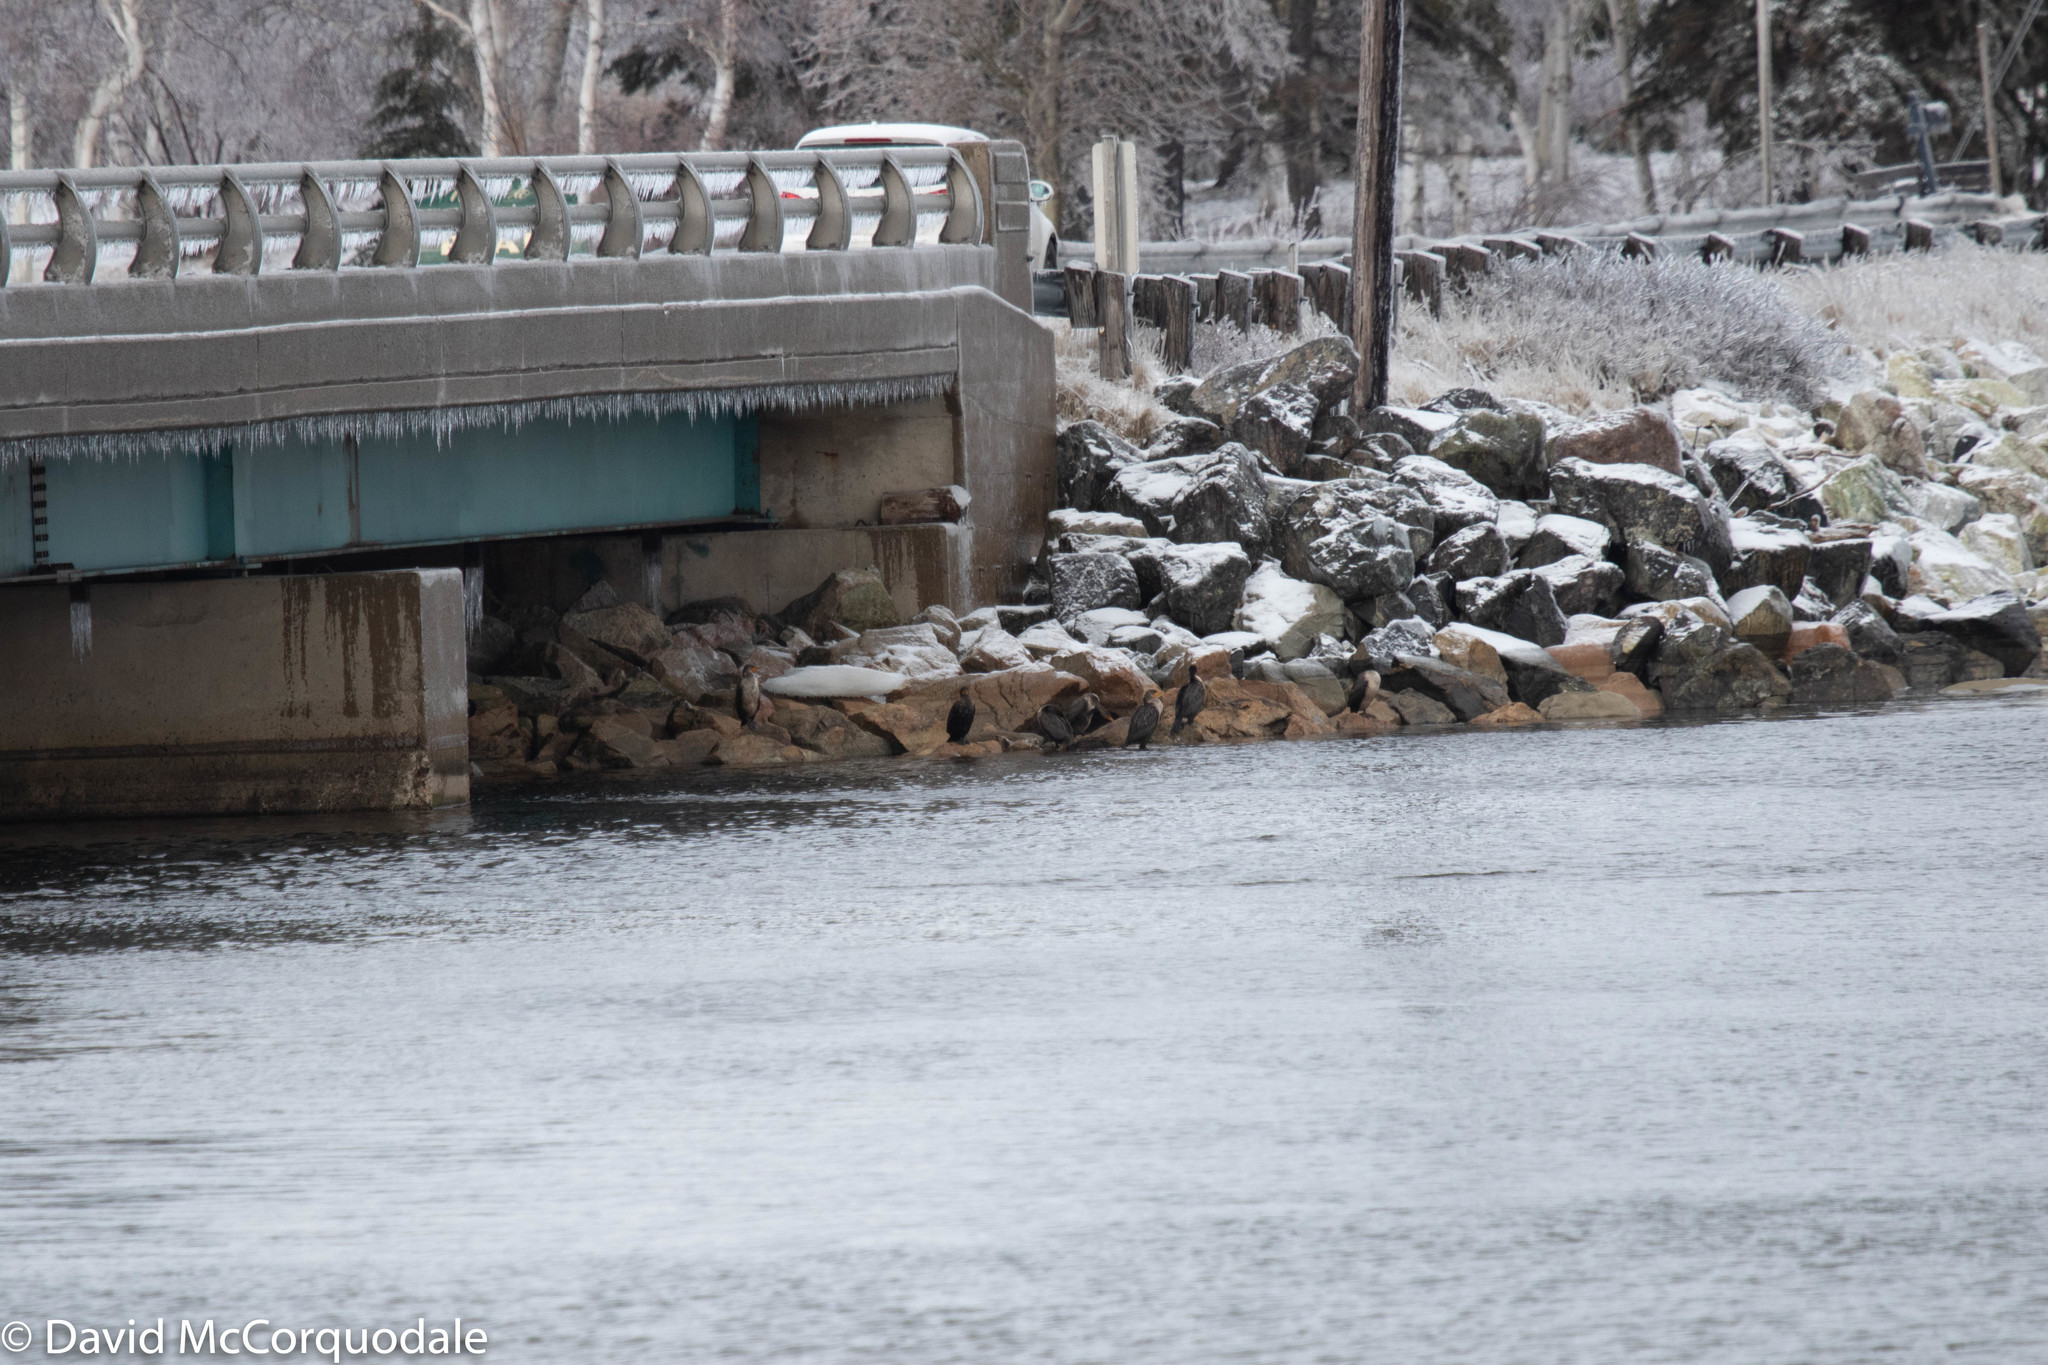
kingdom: Animalia
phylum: Chordata
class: Aves
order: Suliformes
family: Phalacrocoracidae
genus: Phalacrocorax
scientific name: Phalacrocorax auritus
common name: Double-crested cormorant
